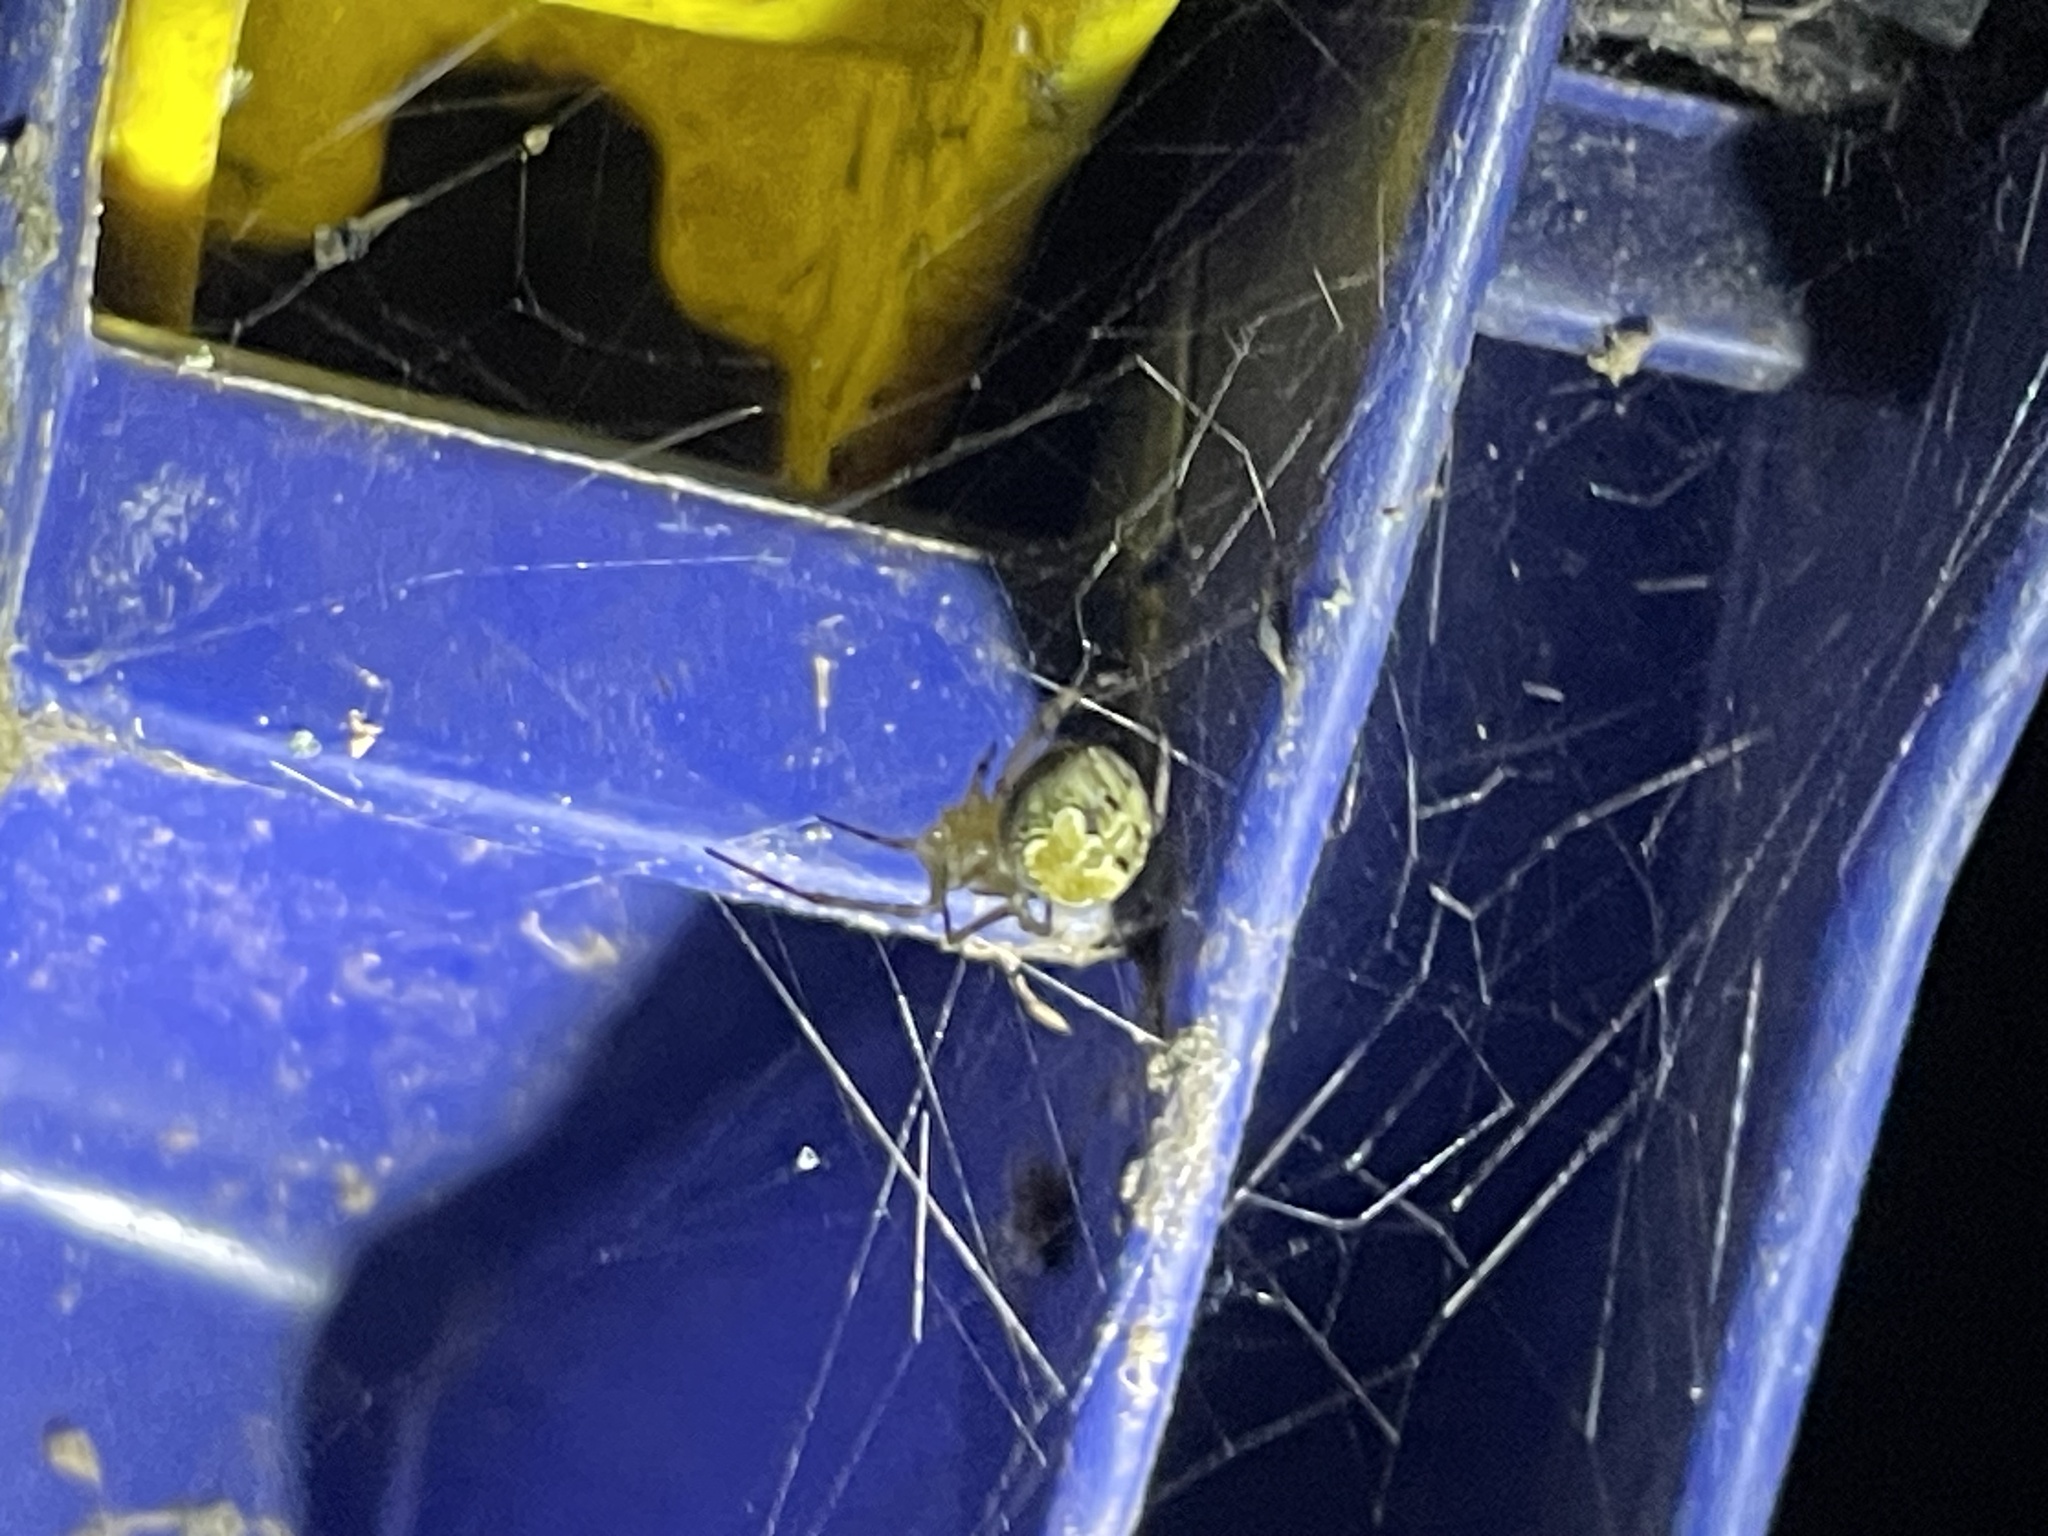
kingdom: Animalia
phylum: Arthropoda
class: Arachnida
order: Araneae
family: Araneidae
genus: Araneus
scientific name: Araneus pegnia
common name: Orb weavers
